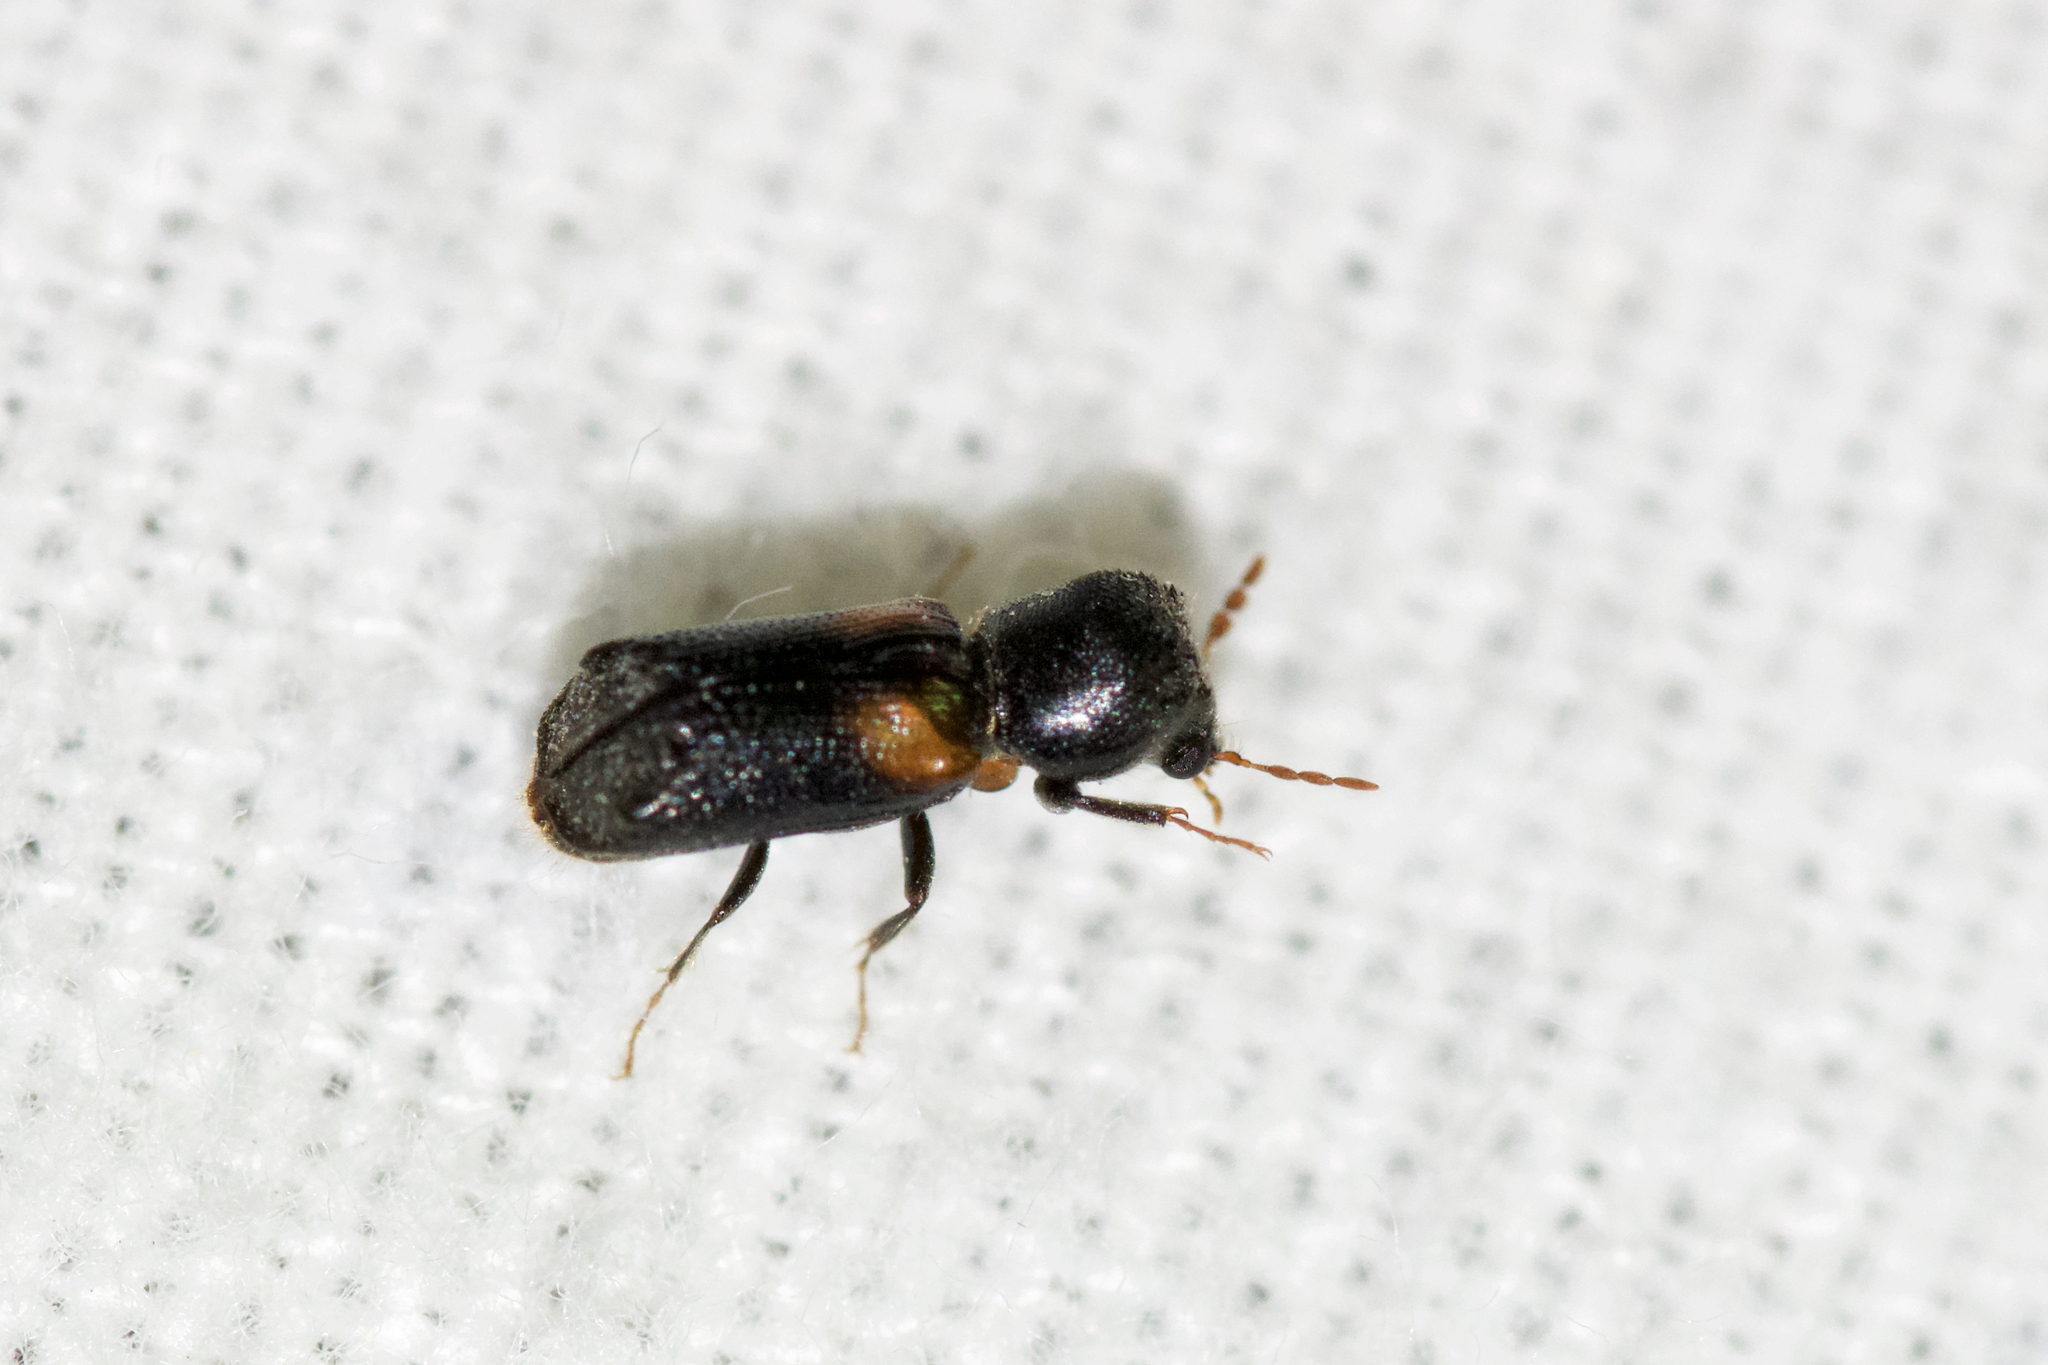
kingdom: Animalia
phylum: Arthropoda
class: Insecta
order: Coleoptera
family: Bostrichidae
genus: Xylobiops
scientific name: Xylobiops basilaris
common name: Red-shouldered bostrichid
